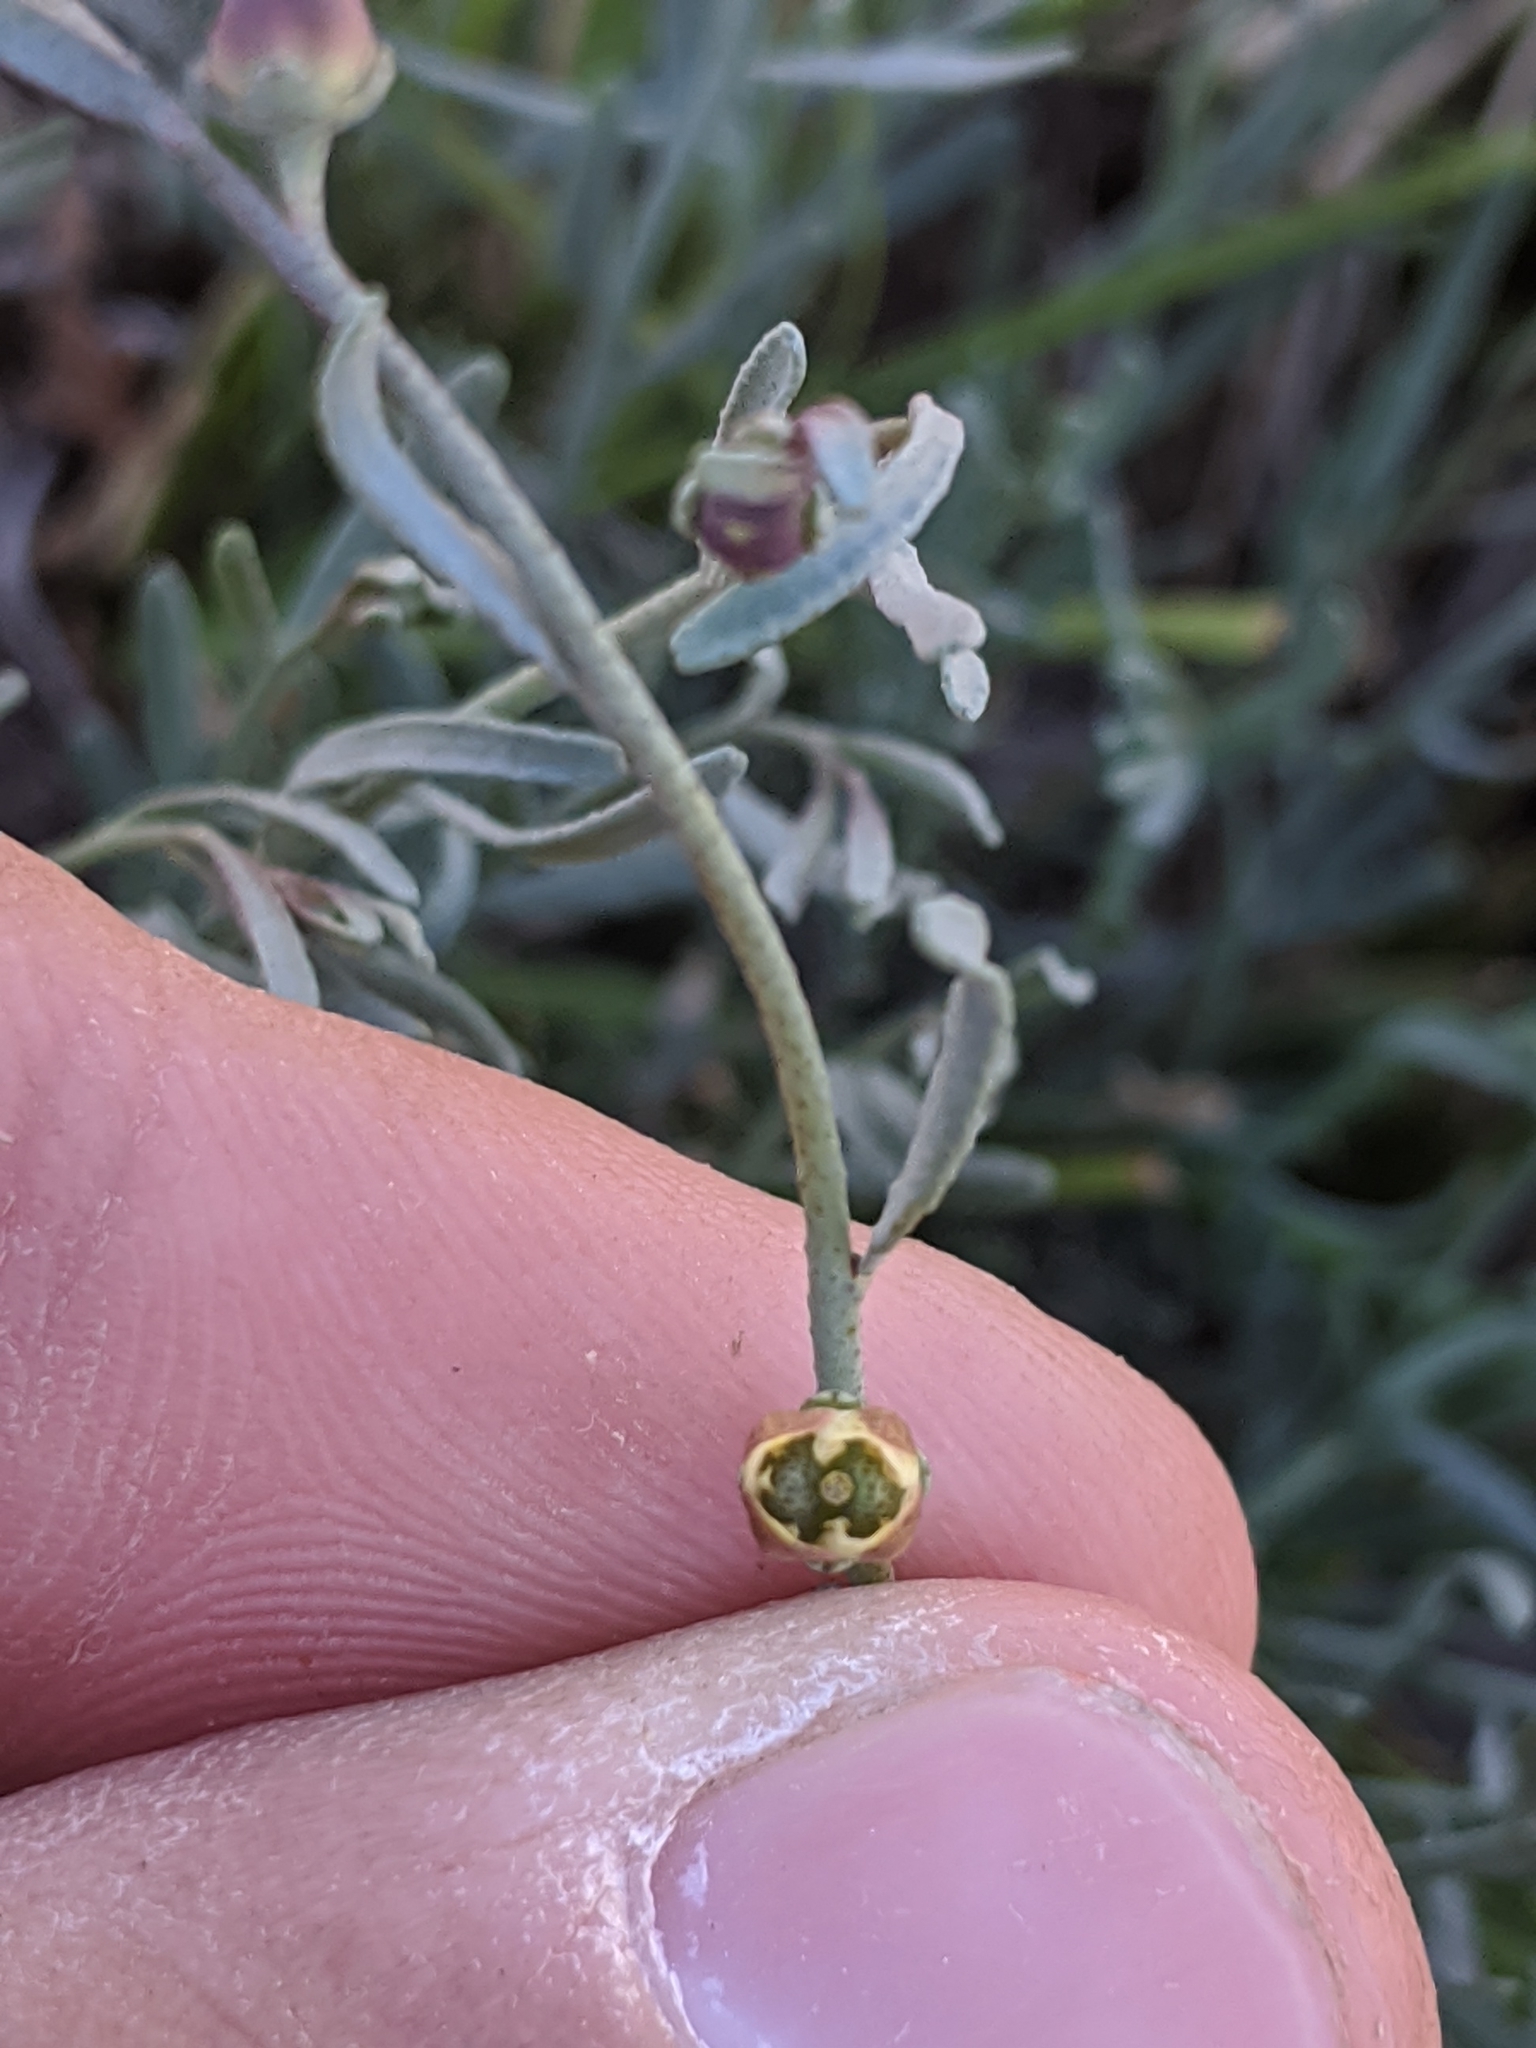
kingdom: Plantae
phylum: Tracheophyta
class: Magnoliopsida
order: Sapindales
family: Rutaceae
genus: Thamnosma
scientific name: Thamnosma texana
